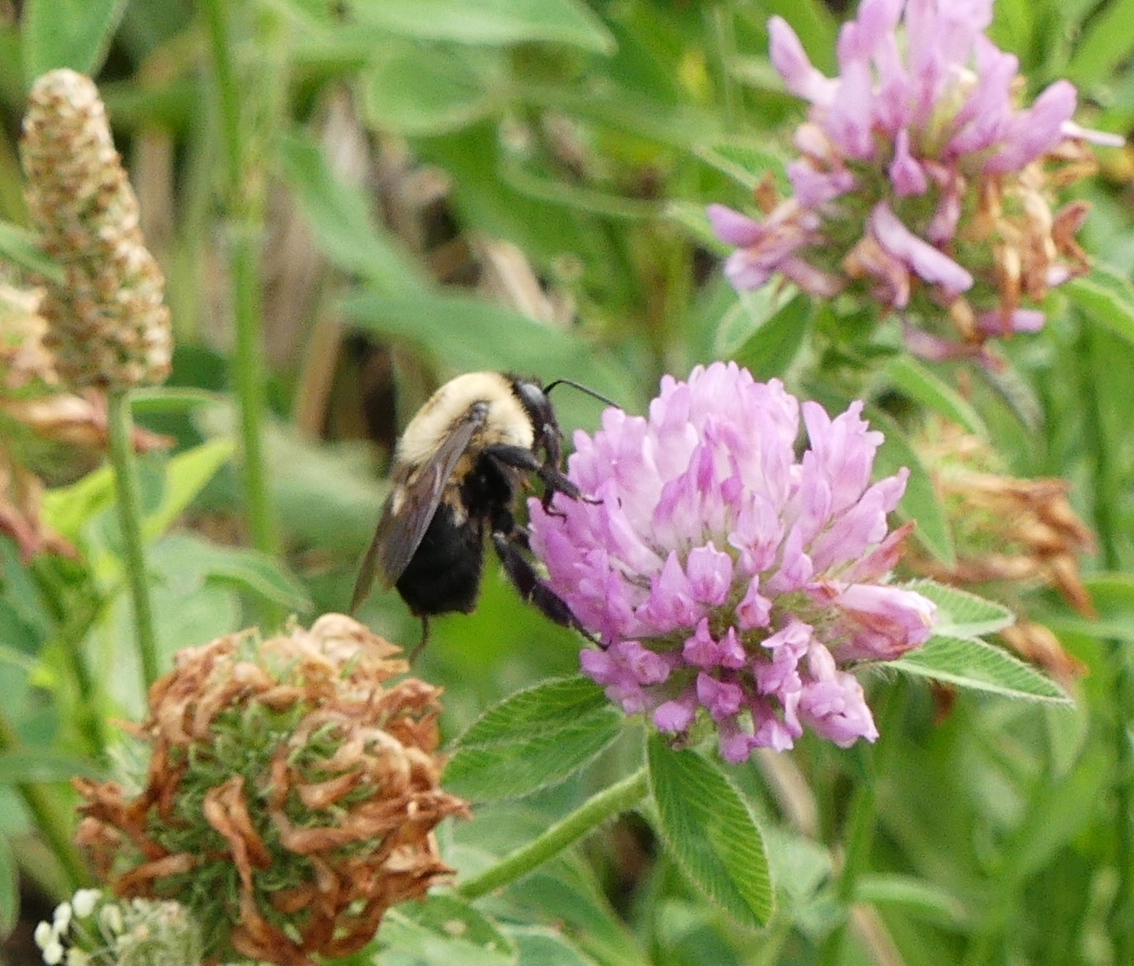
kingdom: Plantae
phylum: Tracheophyta
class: Magnoliopsida
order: Fabales
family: Fabaceae
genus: Trifolium
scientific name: Trifolium pratense
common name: Red clover
